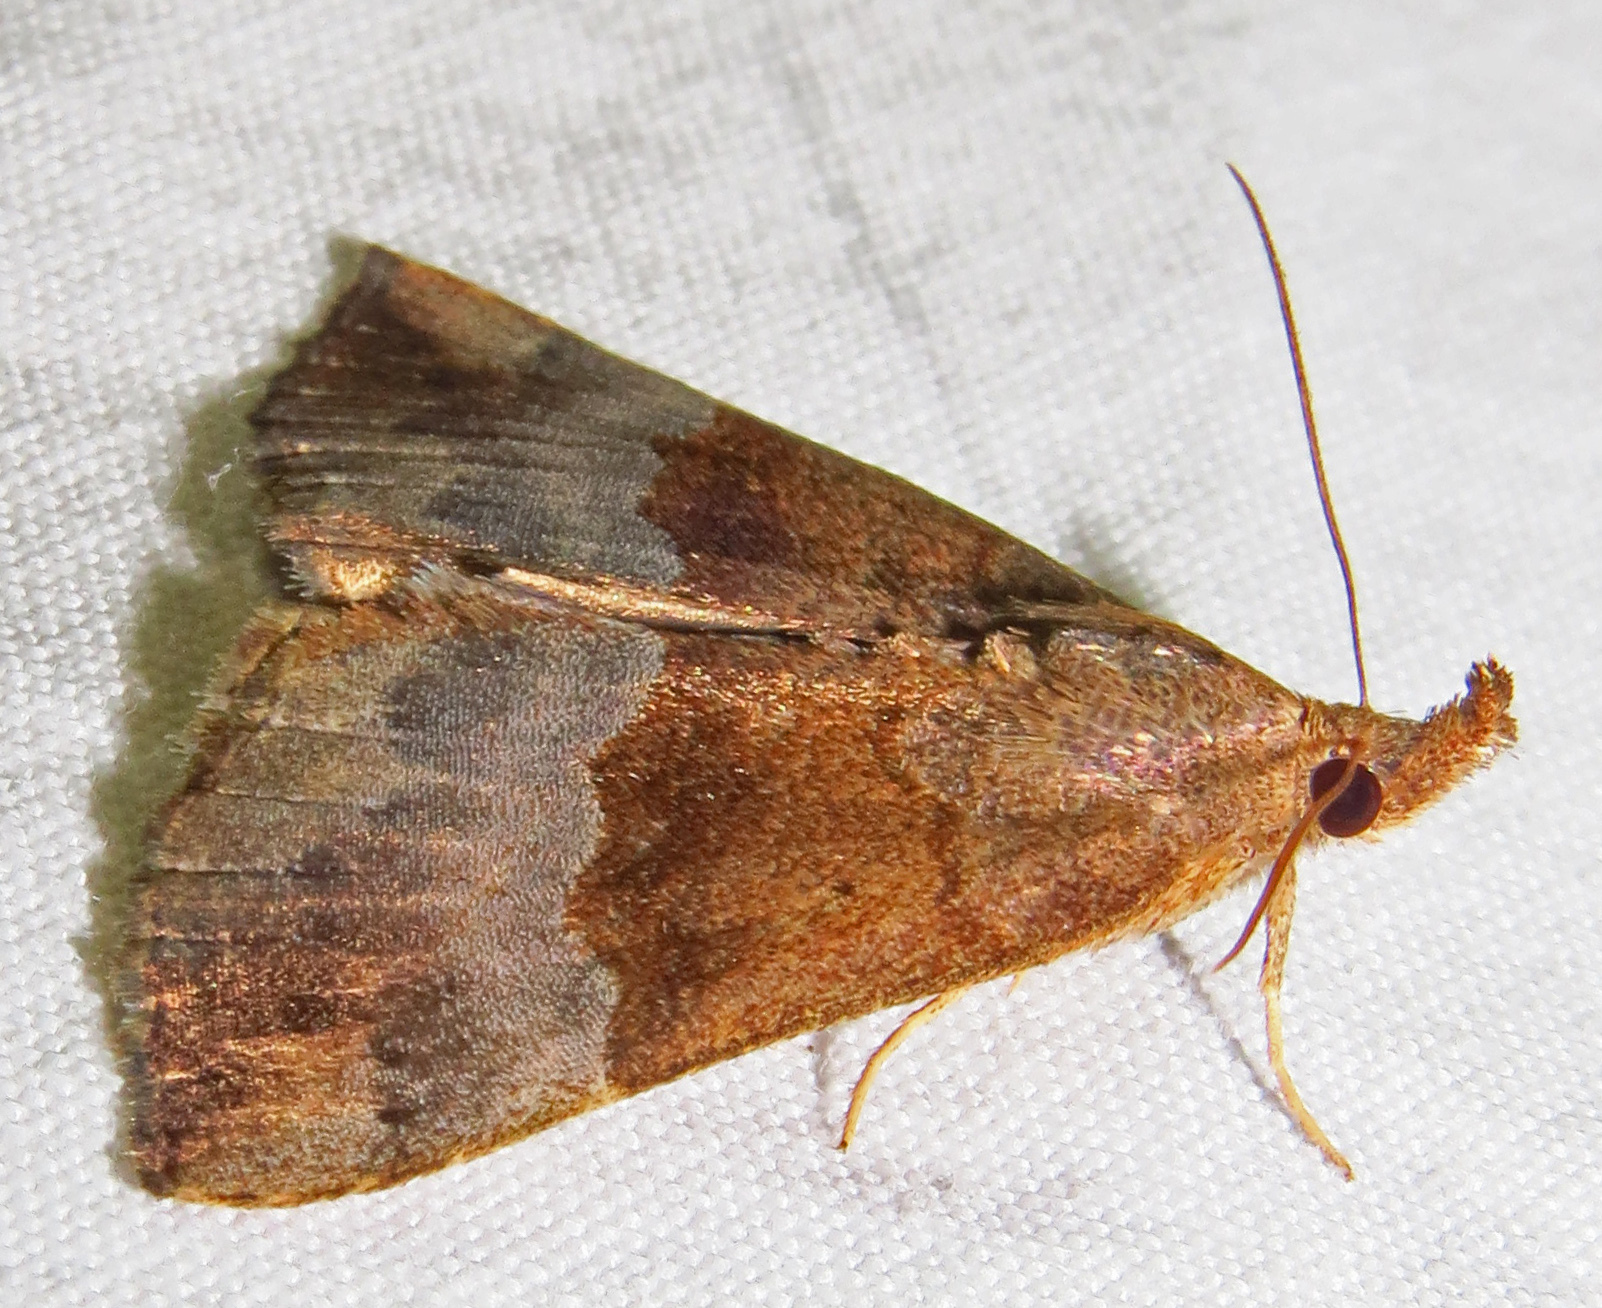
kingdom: Animalia
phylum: Arthropoda
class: Insecta
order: Lepidoptera
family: Erebidae
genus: Hypena
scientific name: Hypena madefactalis
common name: Gray-edged snout
